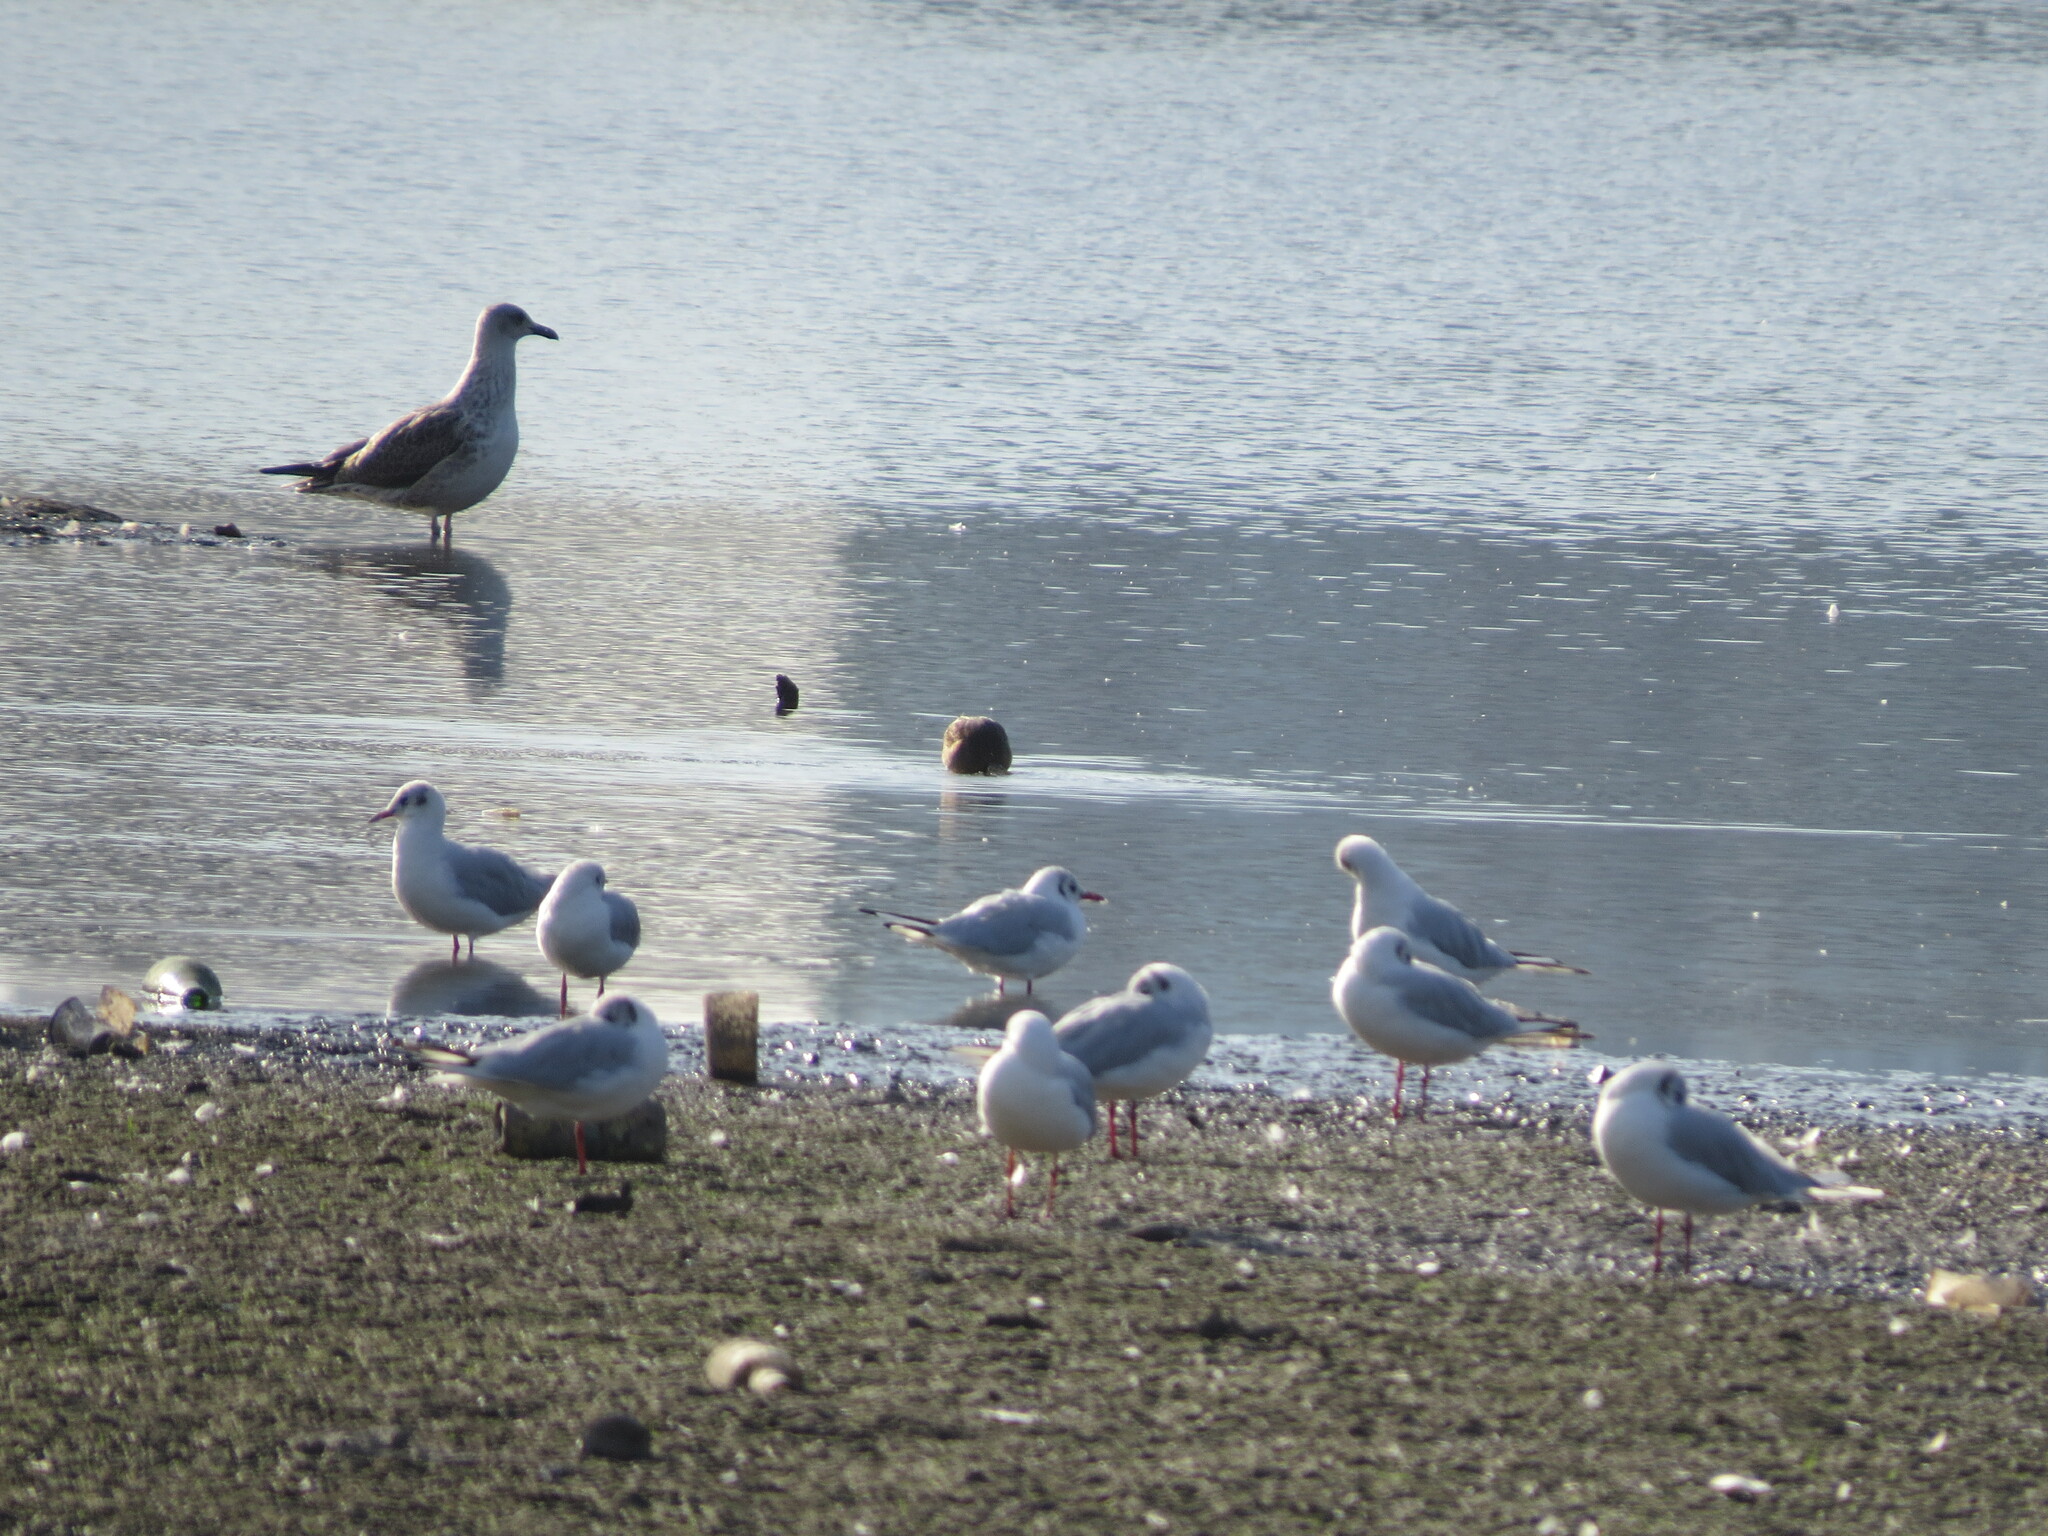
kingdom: Animalia
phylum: Chordata
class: Aves
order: Charadriiformes
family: Laridae
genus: Larus
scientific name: Larus fuscus
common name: Lesser black-backed gull
